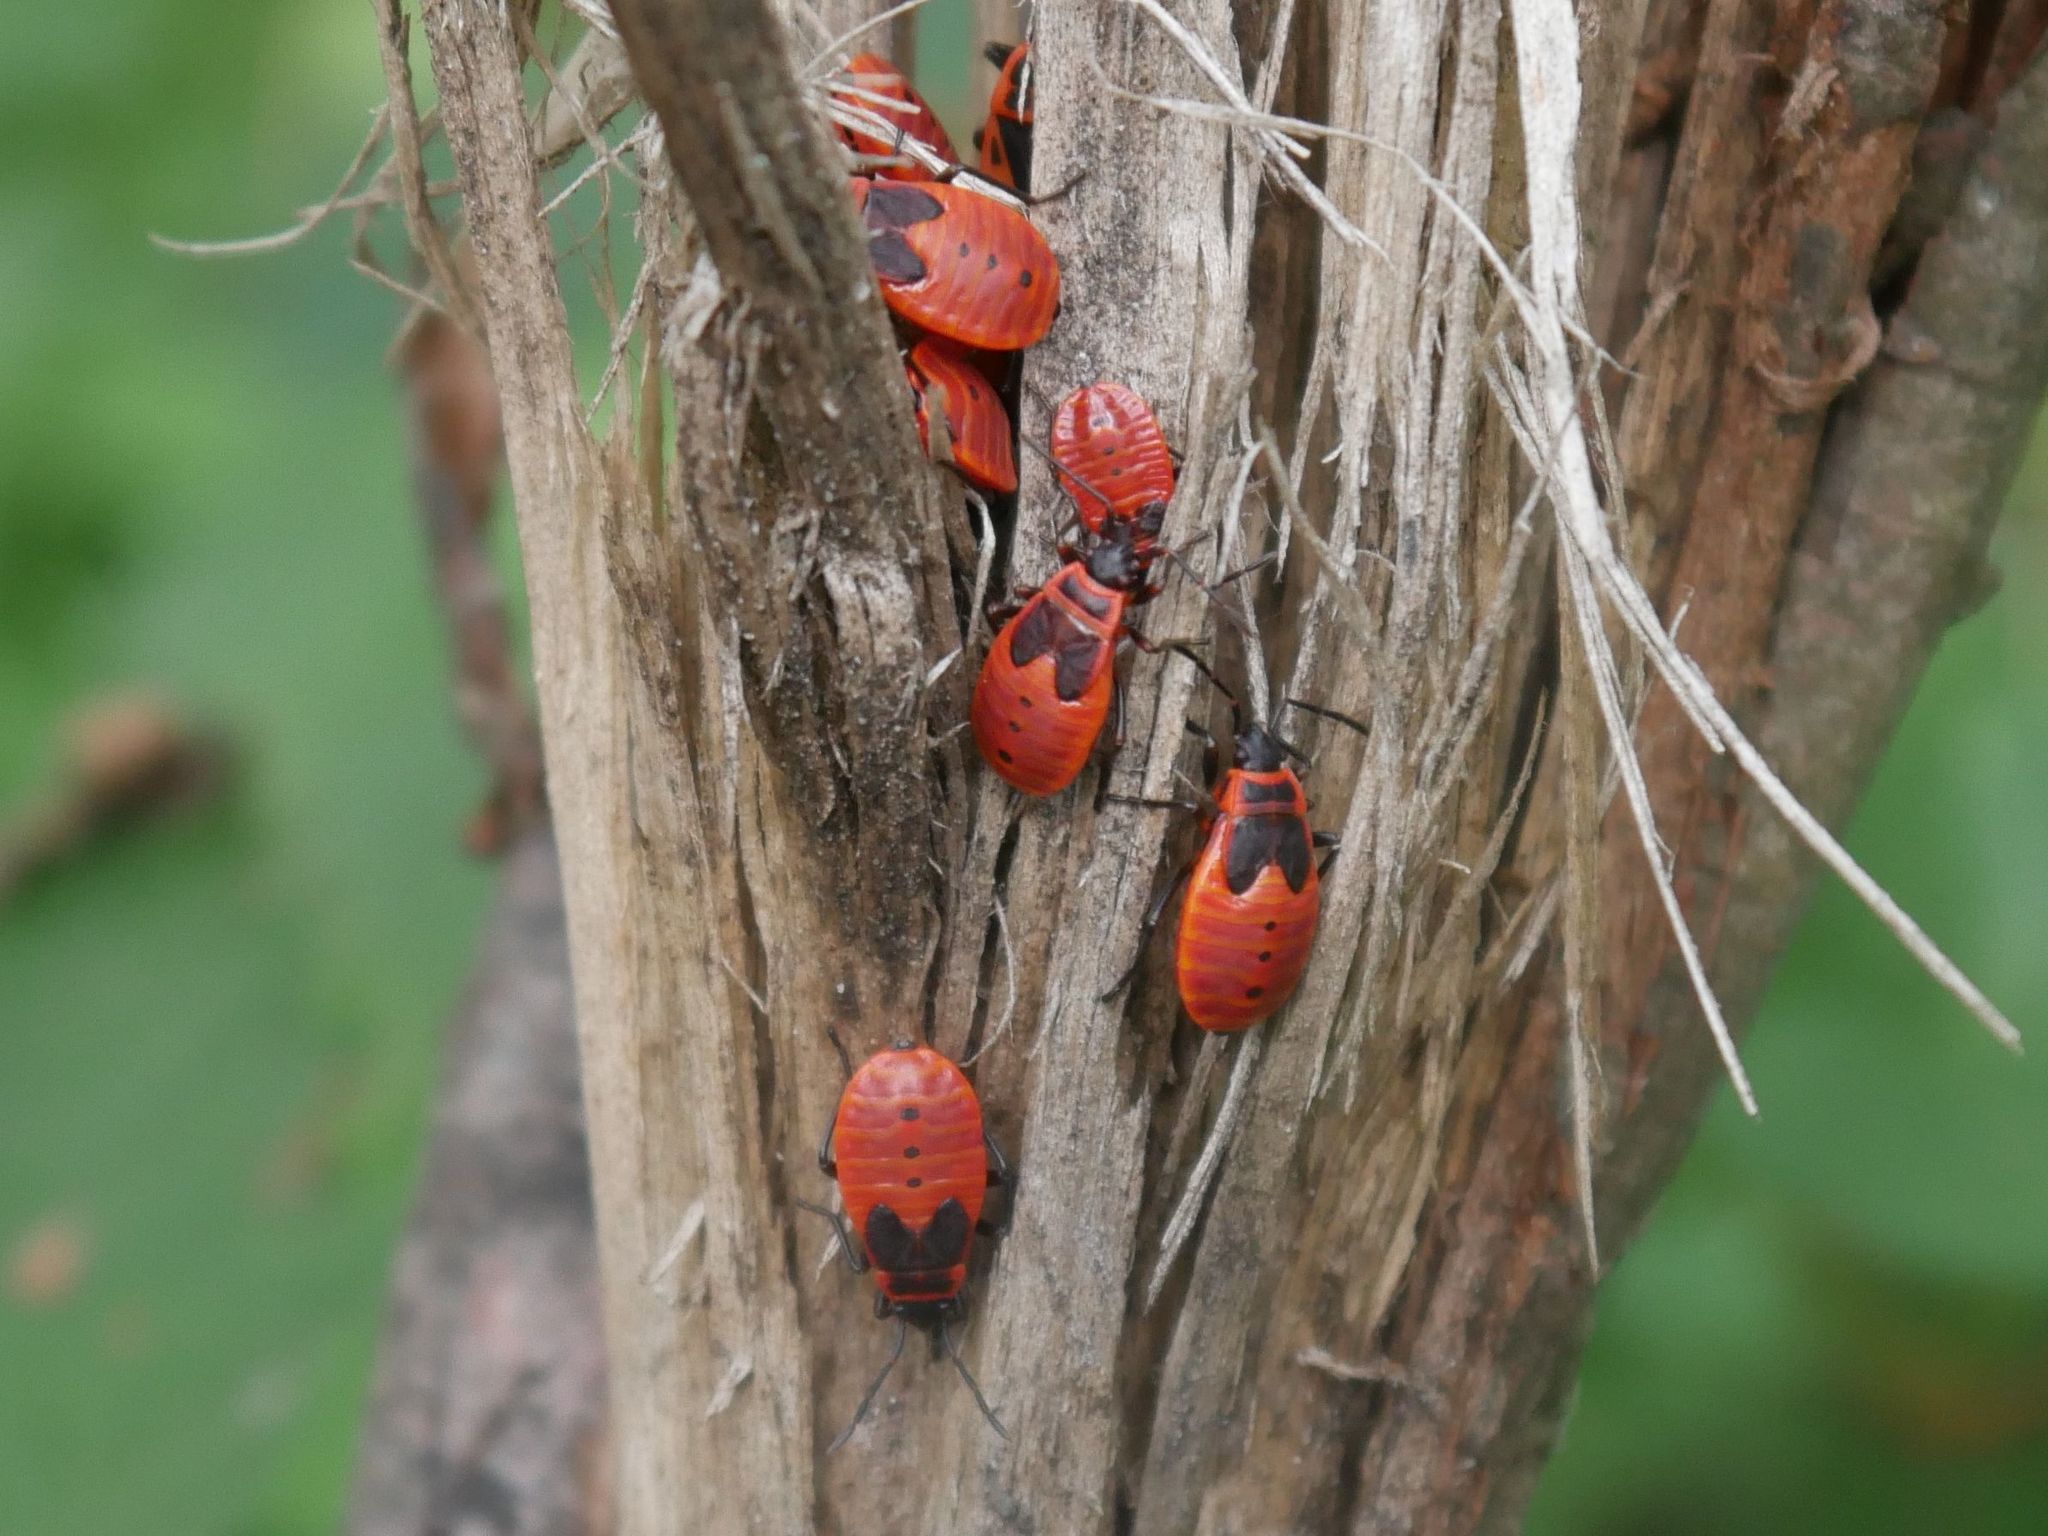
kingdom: Animalia
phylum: Arthropoda
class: Insecta
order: Hemiptera
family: Pyrrhocoridae
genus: Pyrrhocoris
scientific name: Pyrrhocoris apterus
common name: Firebug
